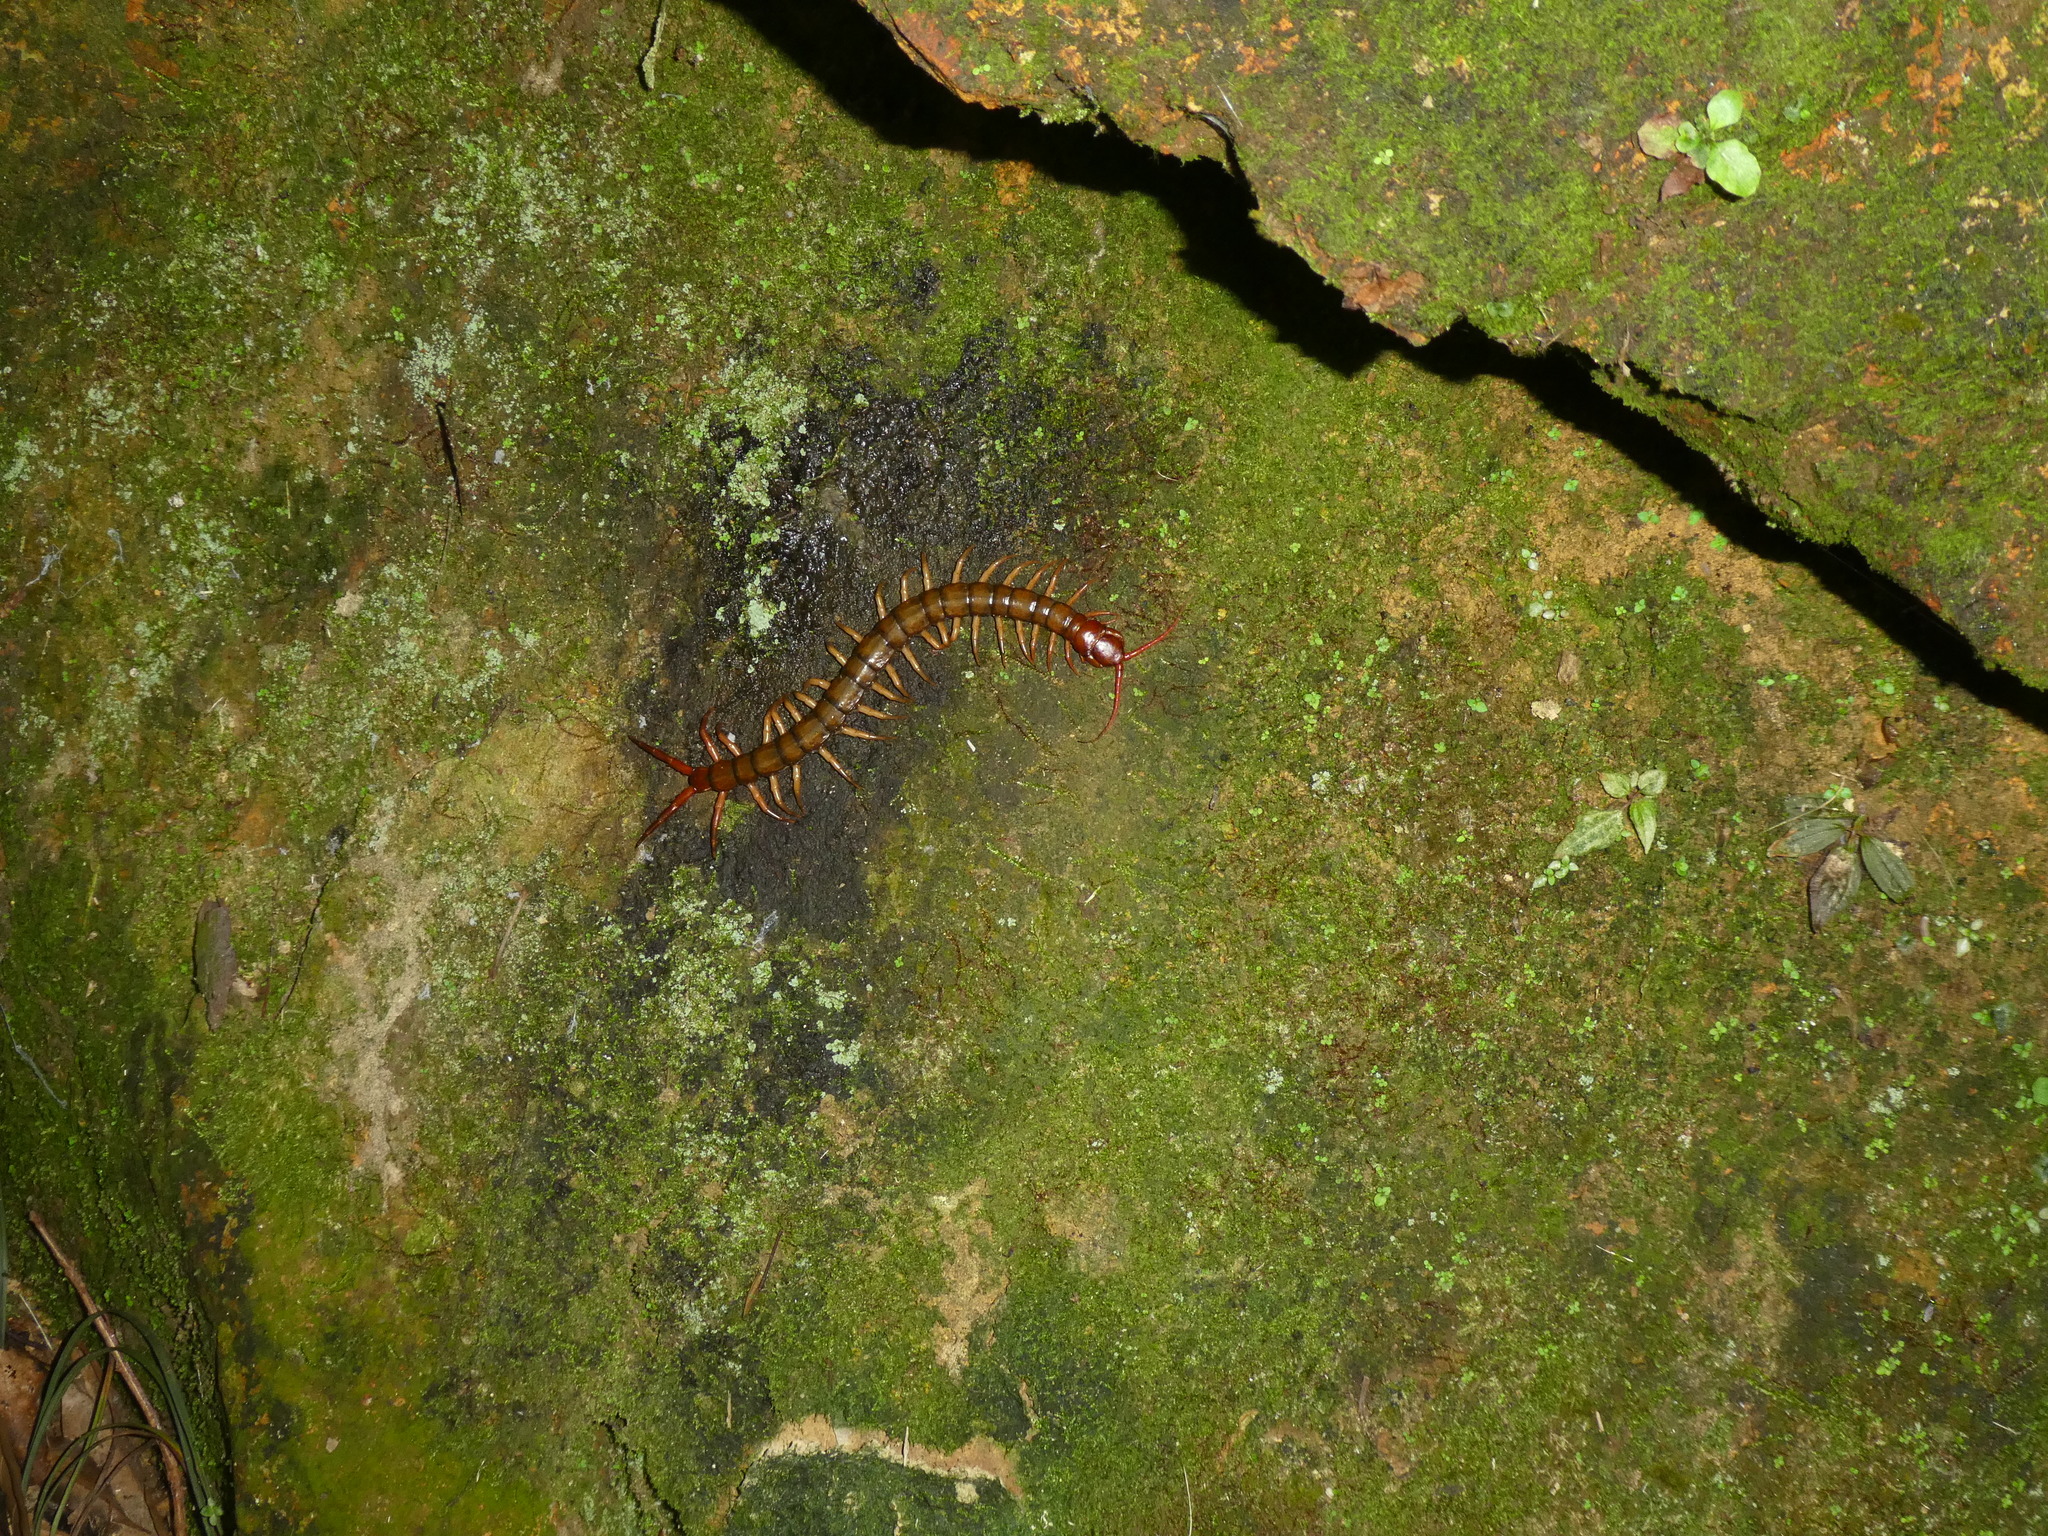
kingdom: Animalia
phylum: Arthropoda
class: Chilopoda
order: Scolopendromorpha
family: Scolopendridae
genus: Scolopendra
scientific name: Scolopendra multidens
